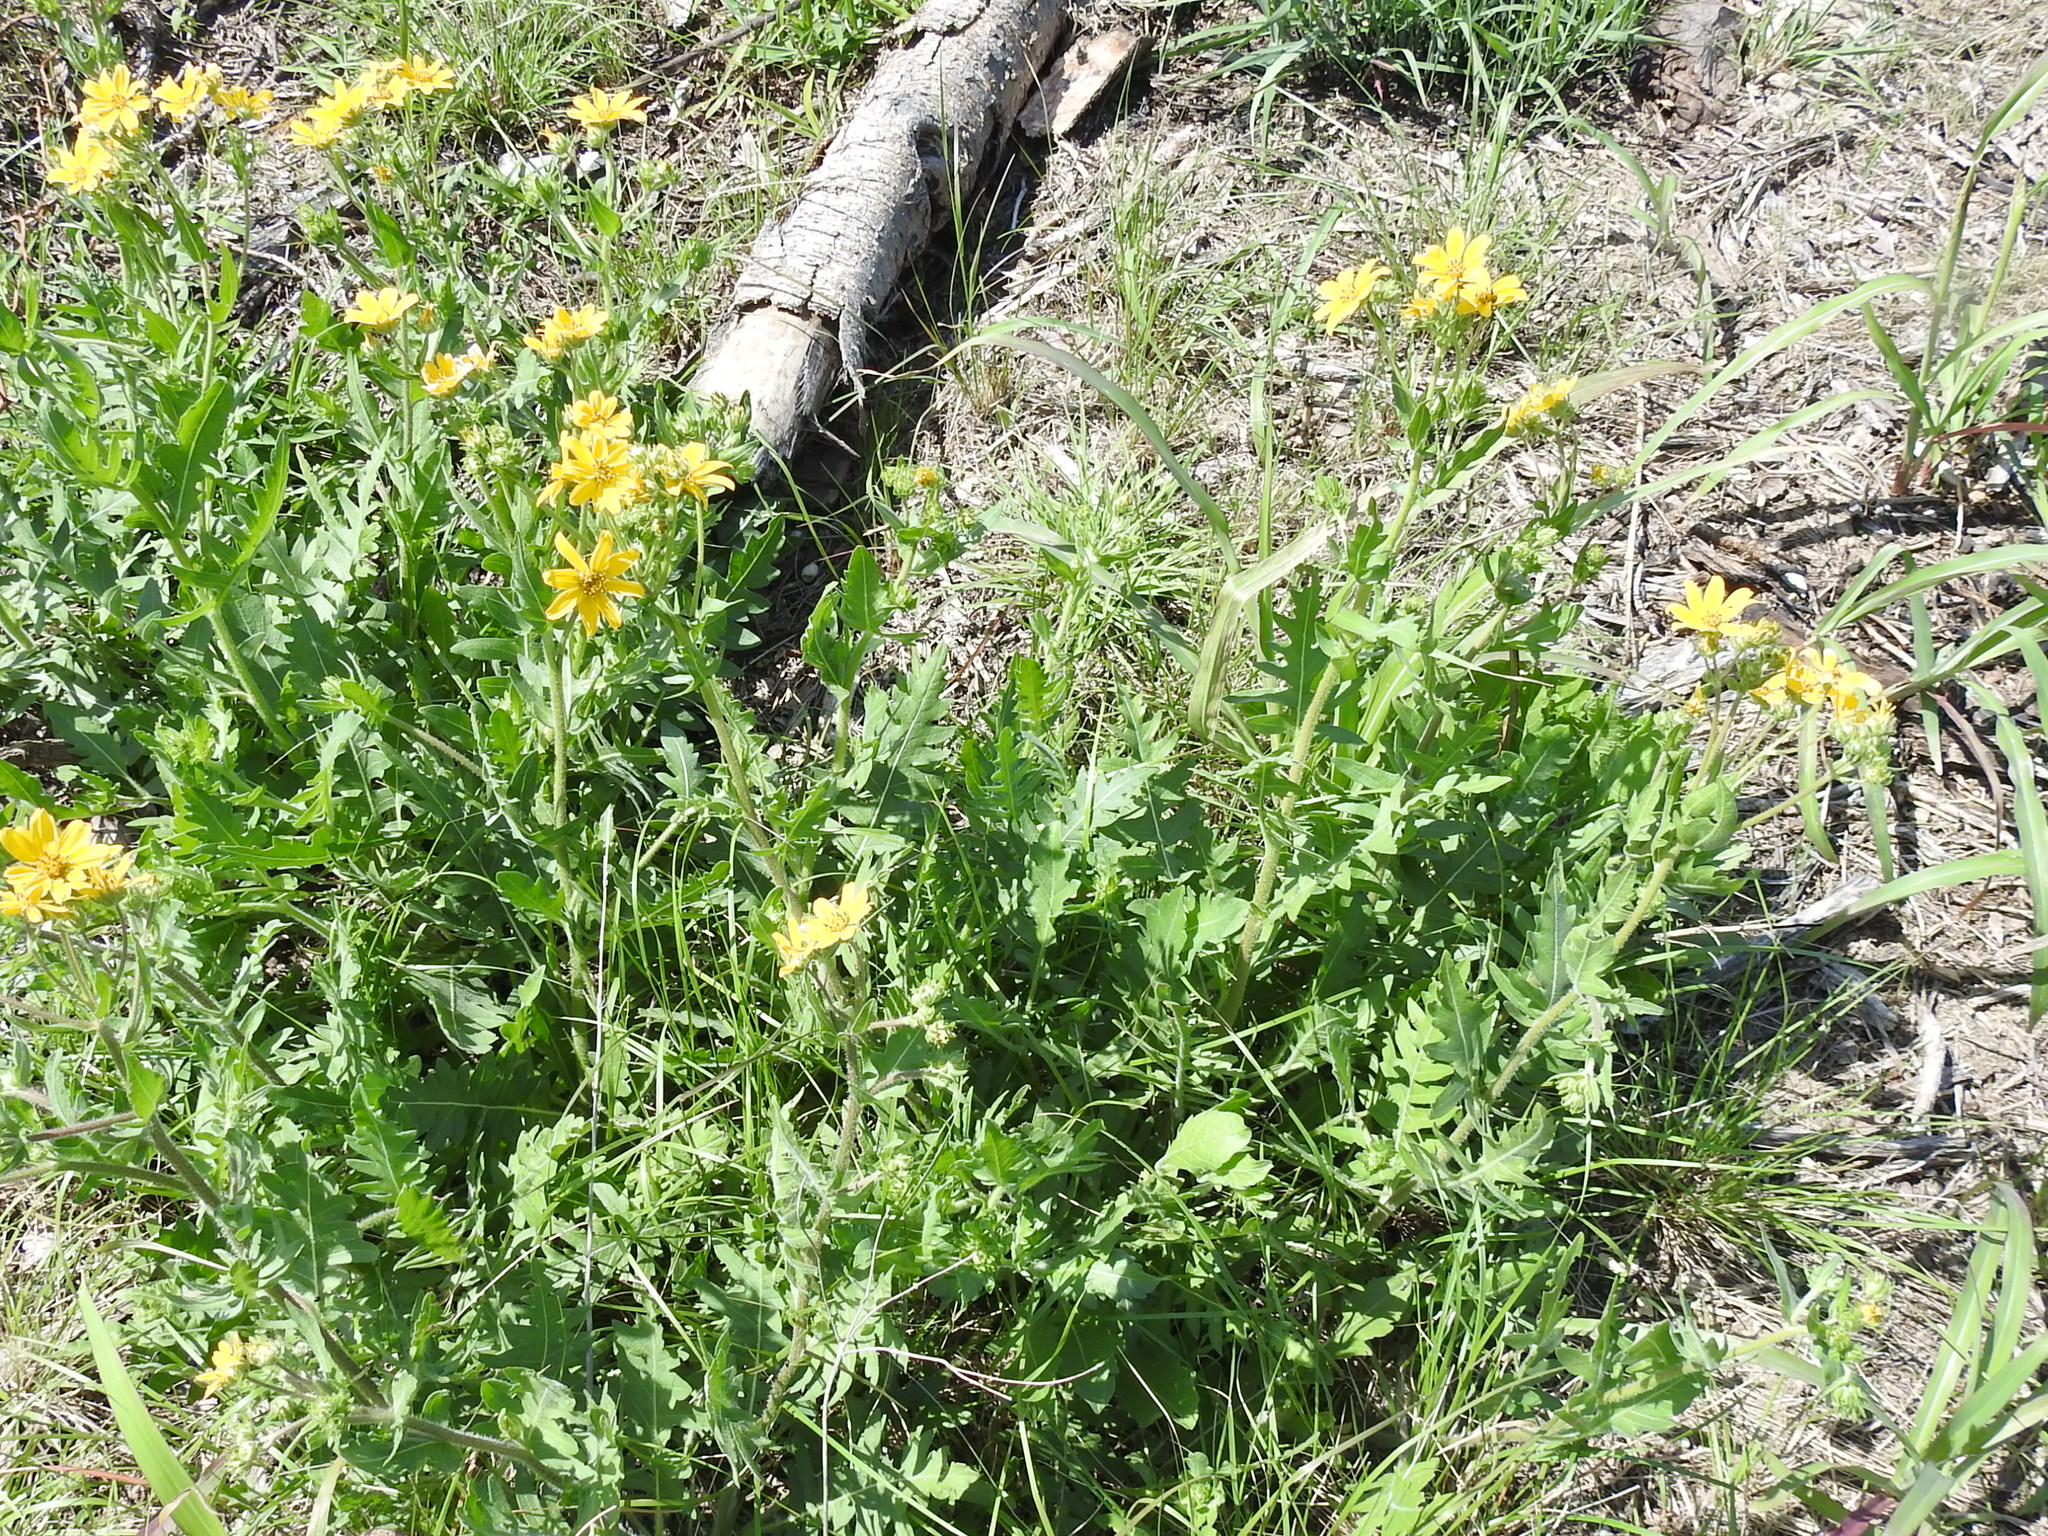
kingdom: Plantae
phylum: Tracheophyta
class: Magnoliopsida
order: Asterales
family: Asteraceae
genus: Engelmannia
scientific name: Engelmannia peristenia
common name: Engelmann's daisy
